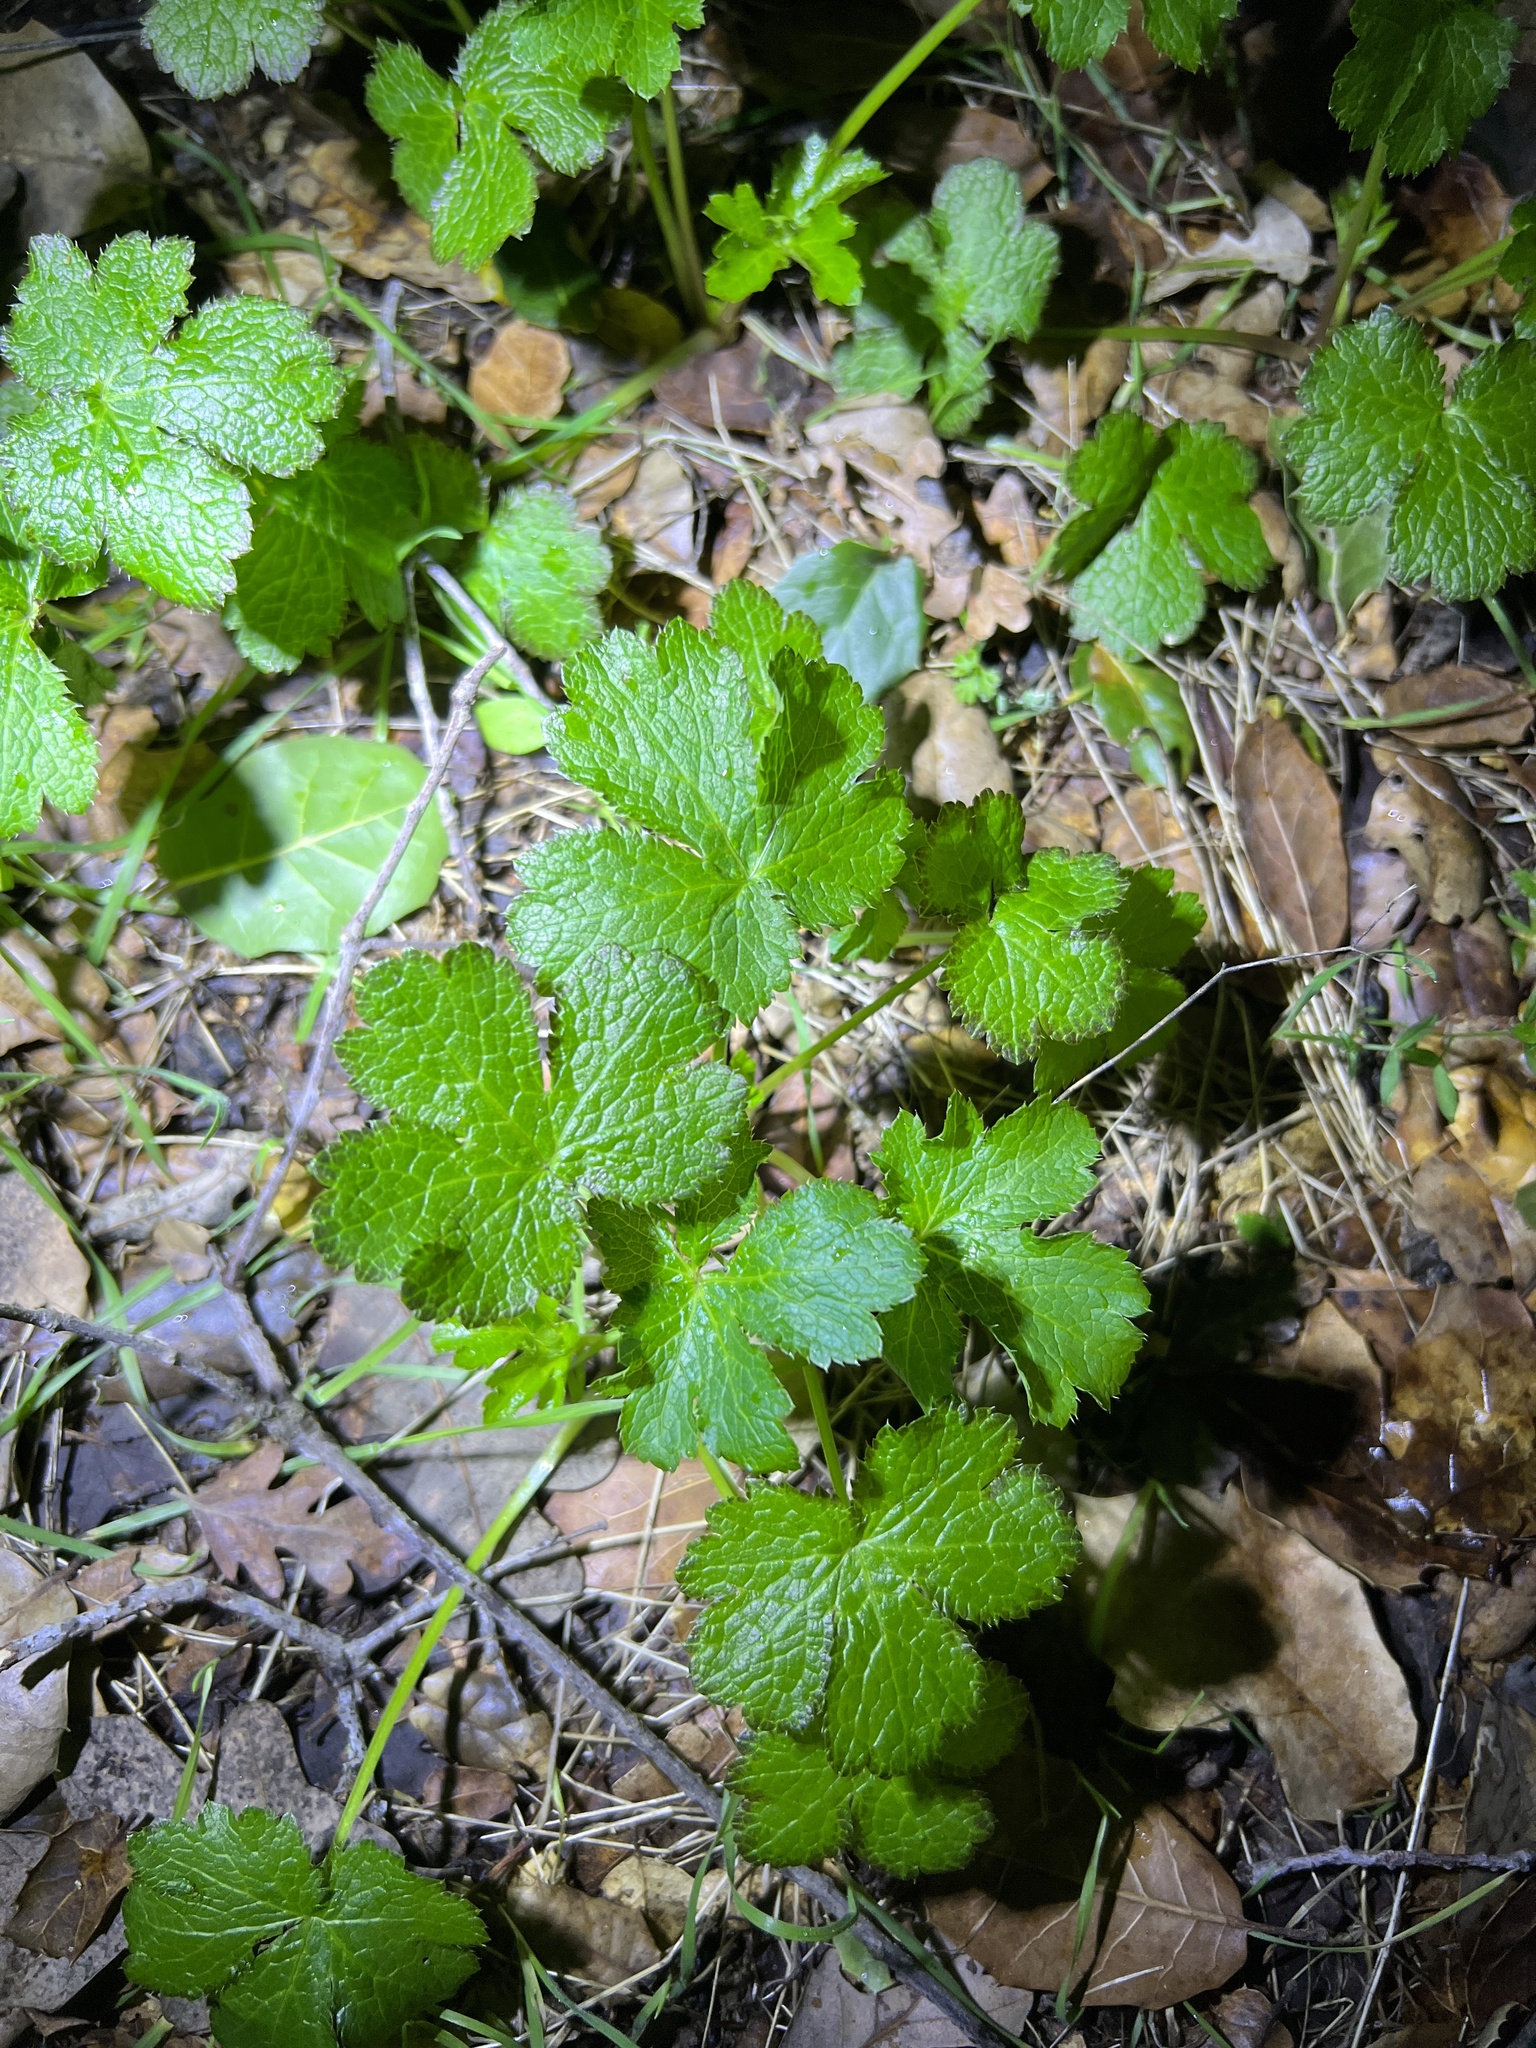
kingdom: Plantae
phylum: Tracheophyta
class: Magnoliopsida
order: Apiales
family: Apiaceae
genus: Sanicula
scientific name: Sanicula crassicaulis
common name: Western snakeroot
